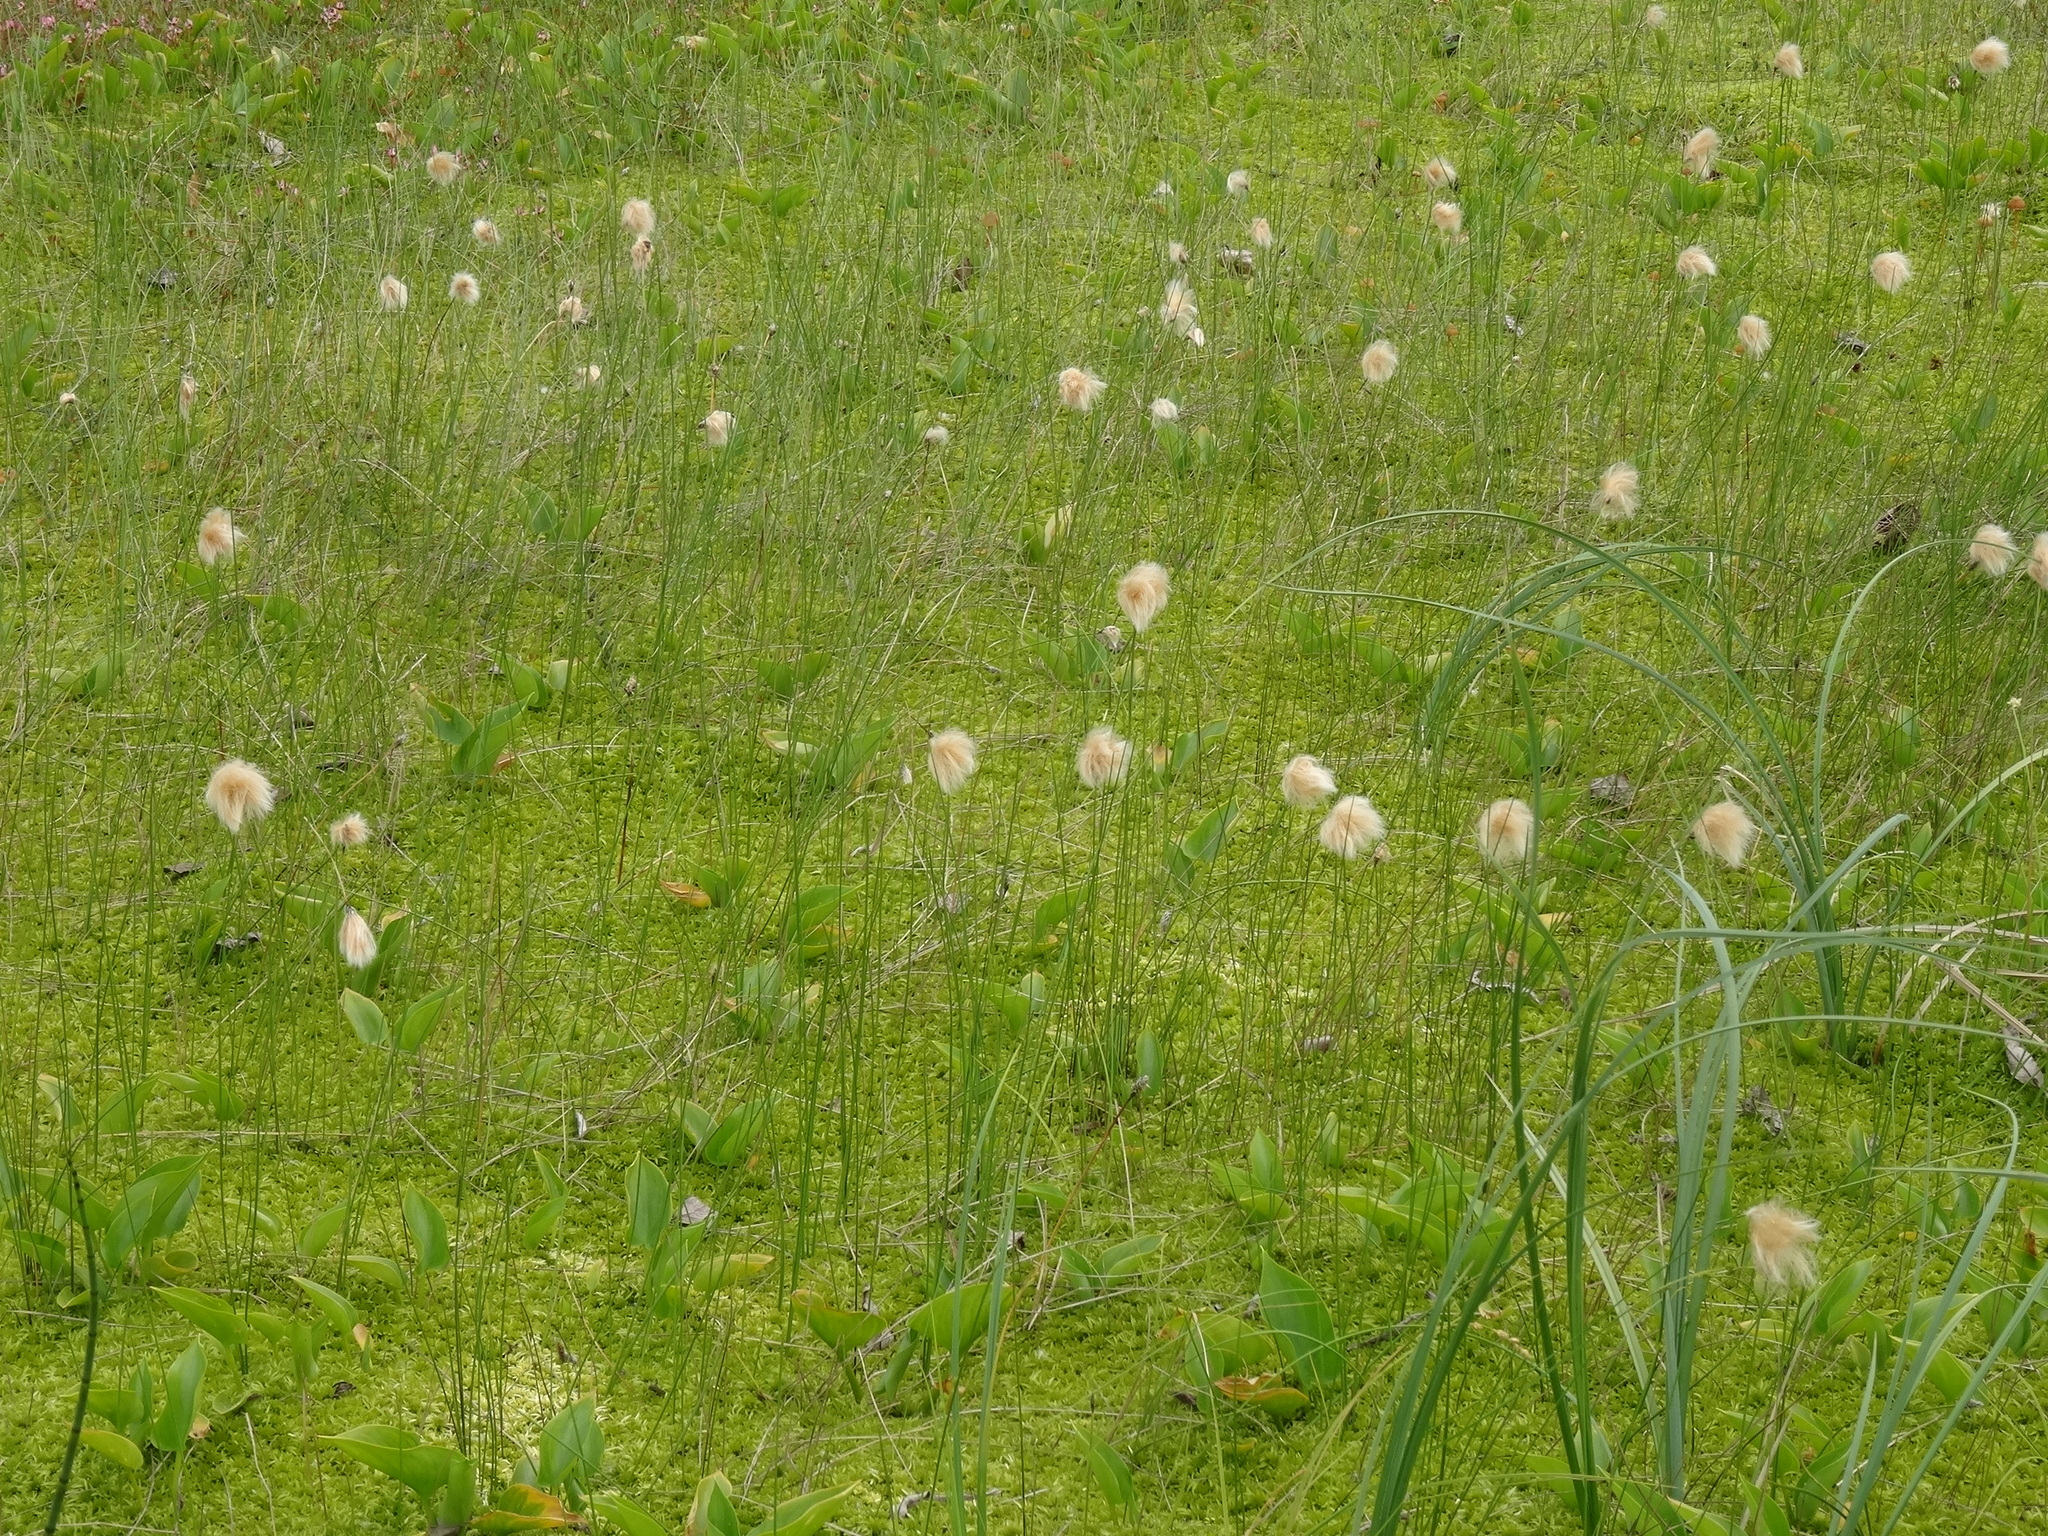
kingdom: Plantae
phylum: Tracheophyta
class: Liliopsida
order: Poales
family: Cyperaceae
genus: Eriophorum
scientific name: Eriophorum chamissonis
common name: Chamisso's cottongrass
